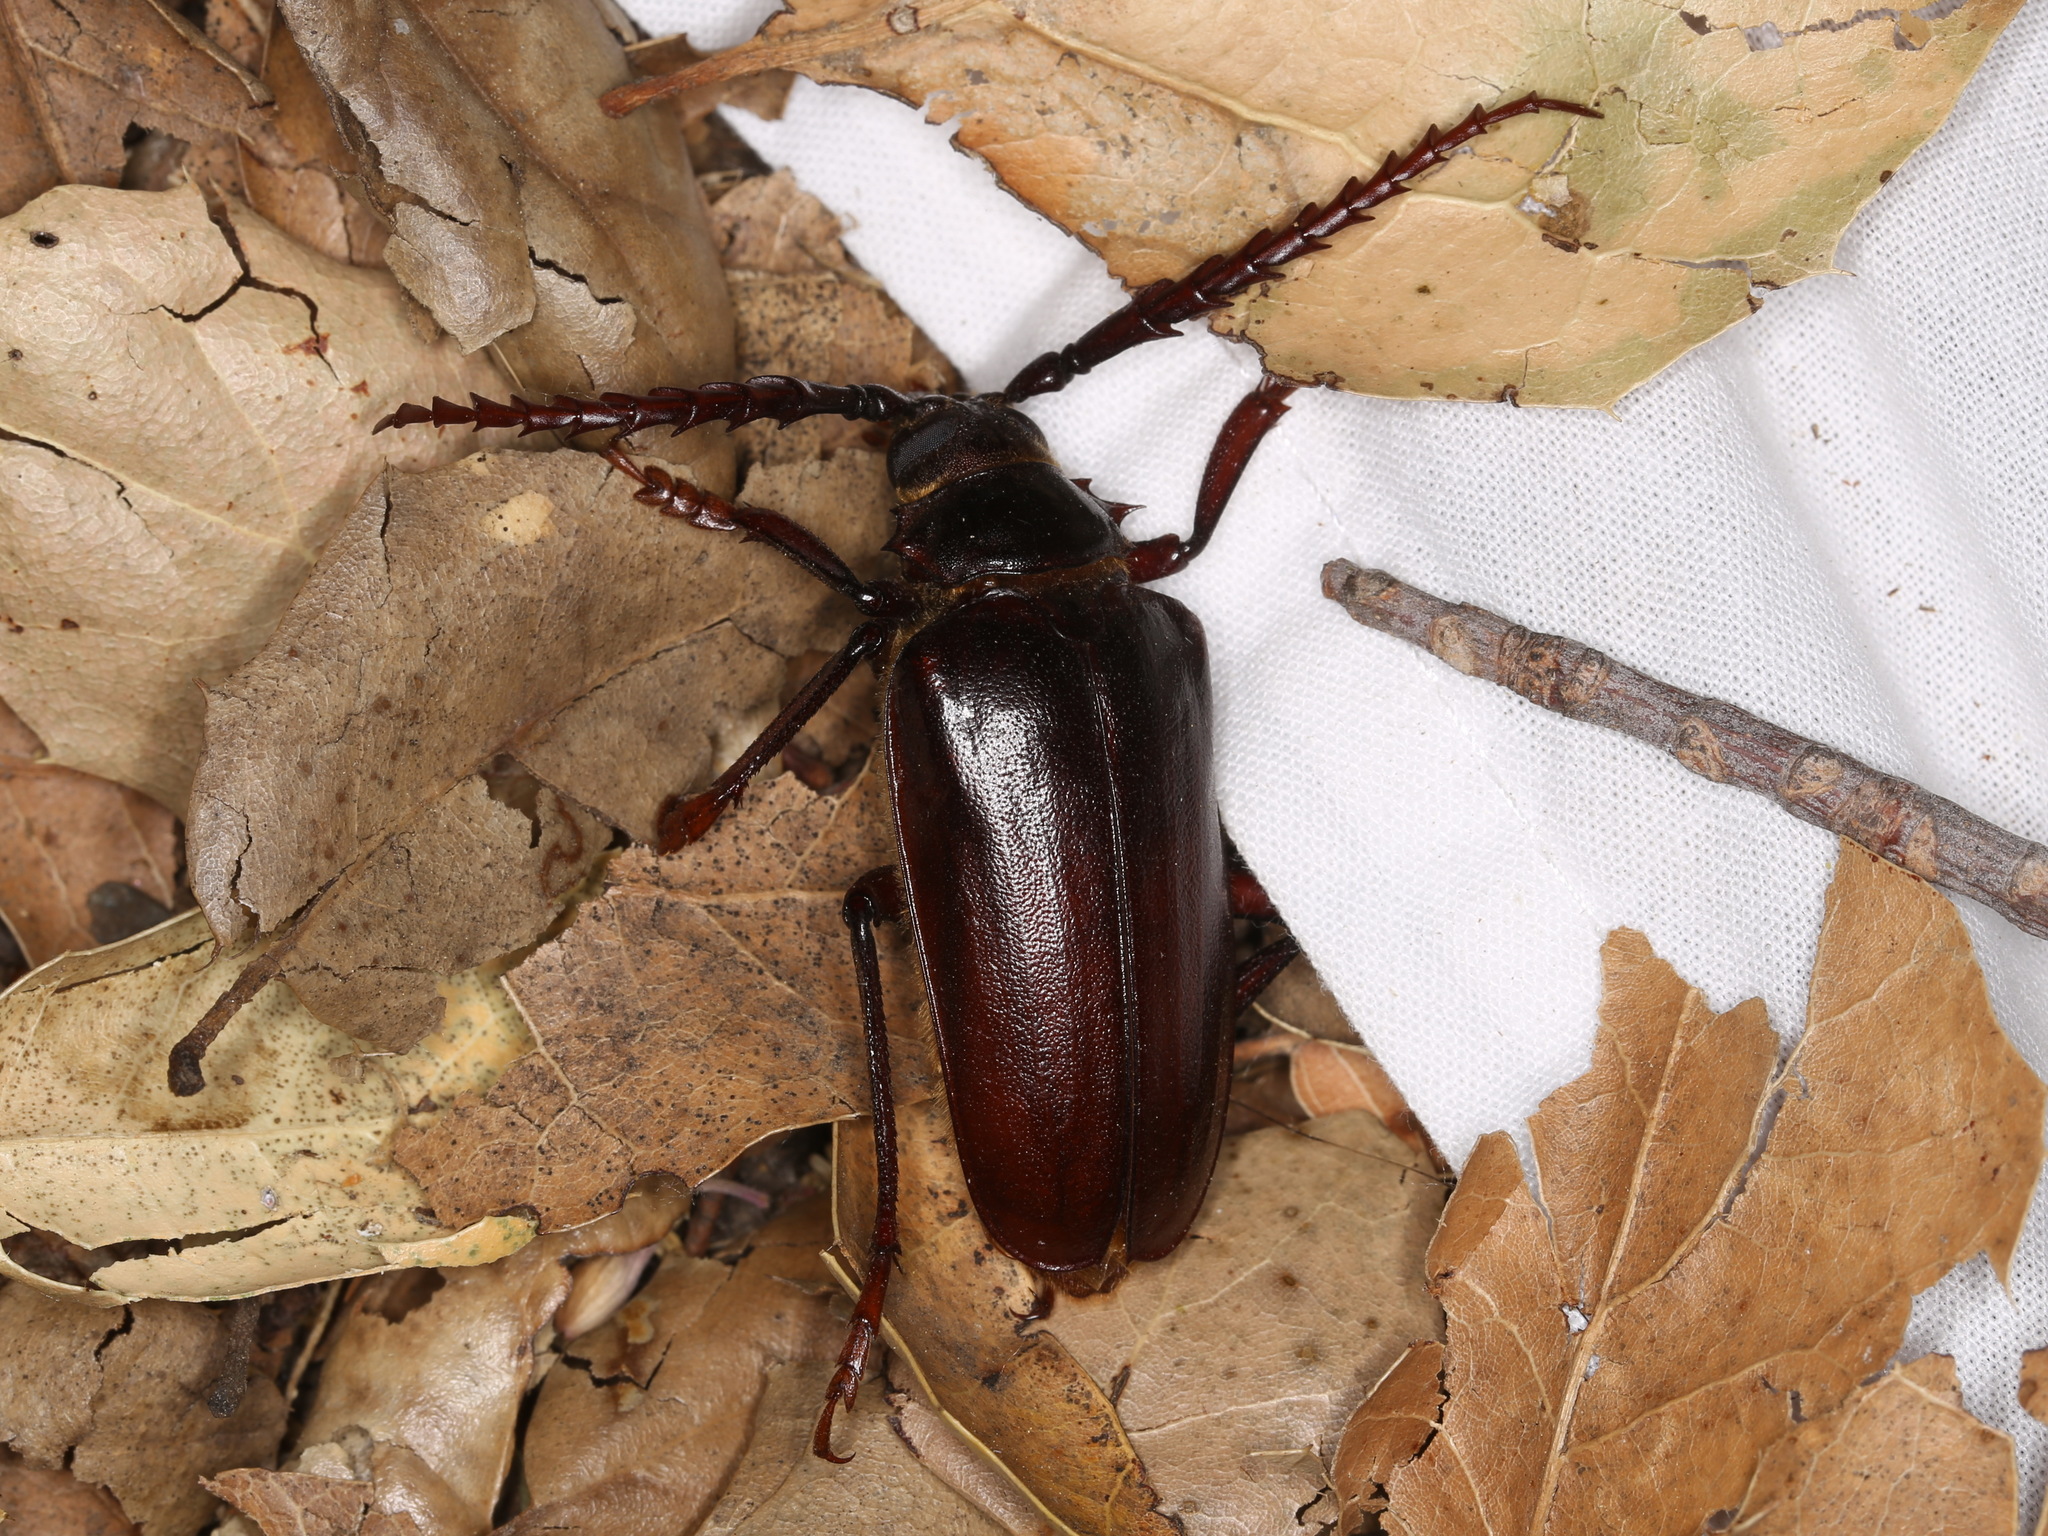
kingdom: Animalia
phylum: Arthropoda
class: Insecta
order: Coleoptera
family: Cerambycidae
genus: Prionus
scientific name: Prionus californicus
